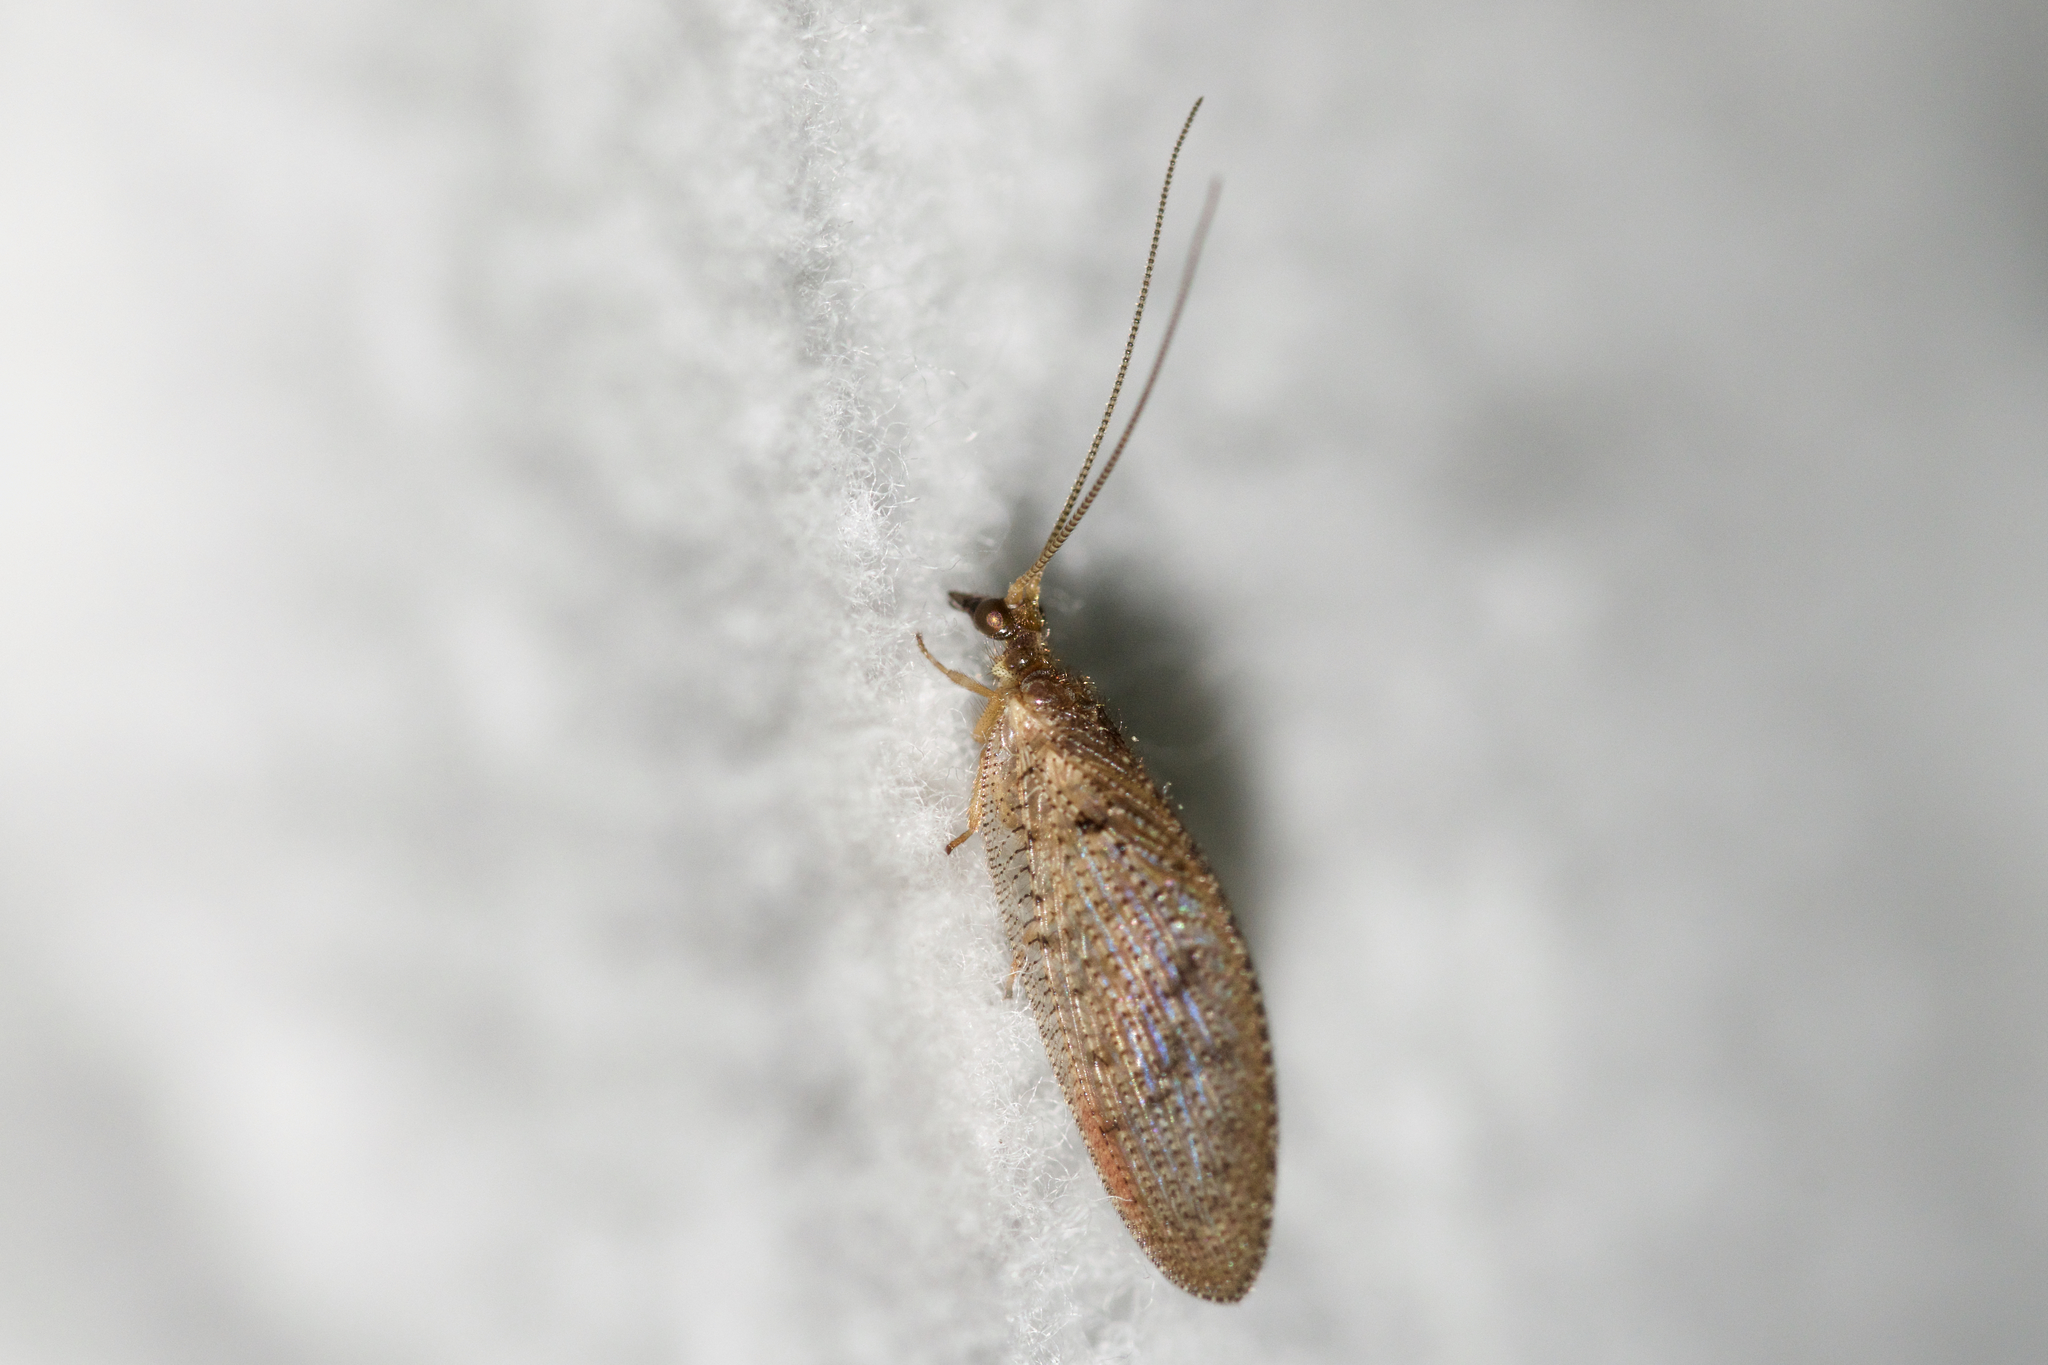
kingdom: Animalia
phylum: Arthropoda
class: Insecta
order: Neuroptera
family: Hemerobiidae
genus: Hemerobius
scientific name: Hemerobius stigma
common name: Brown pine lacewing
